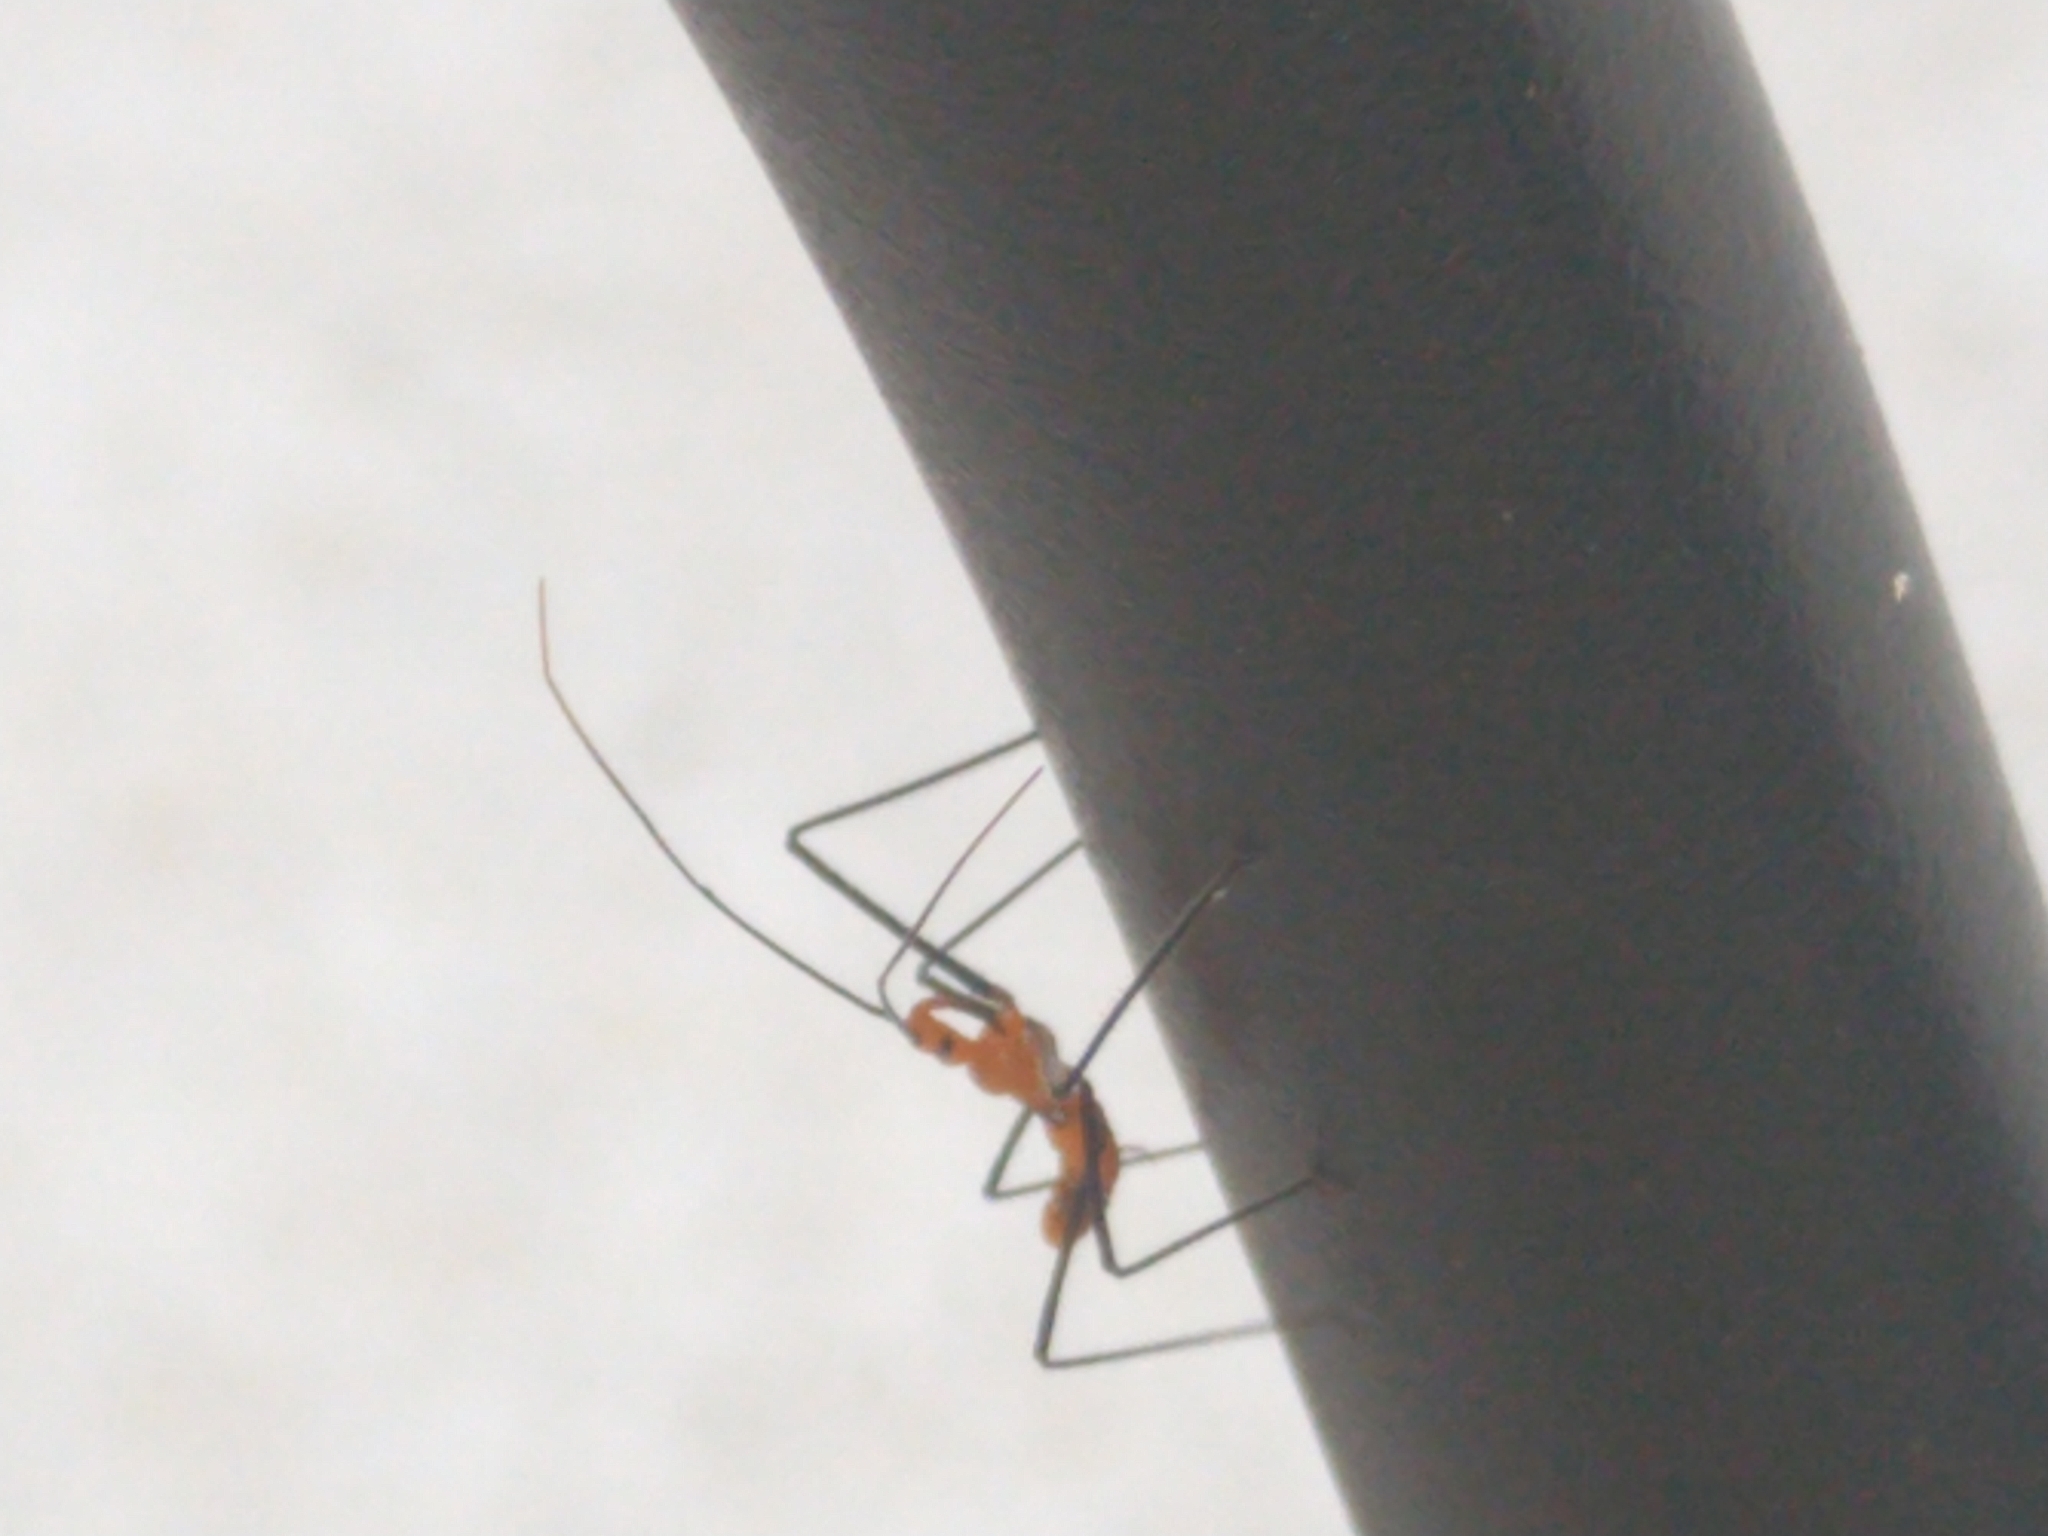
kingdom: Animalia
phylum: Arthropoda
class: Insecta
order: Hemiptera
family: Reduviidae
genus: Zelus
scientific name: Zelus longipes
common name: Milkweed assassin bug
